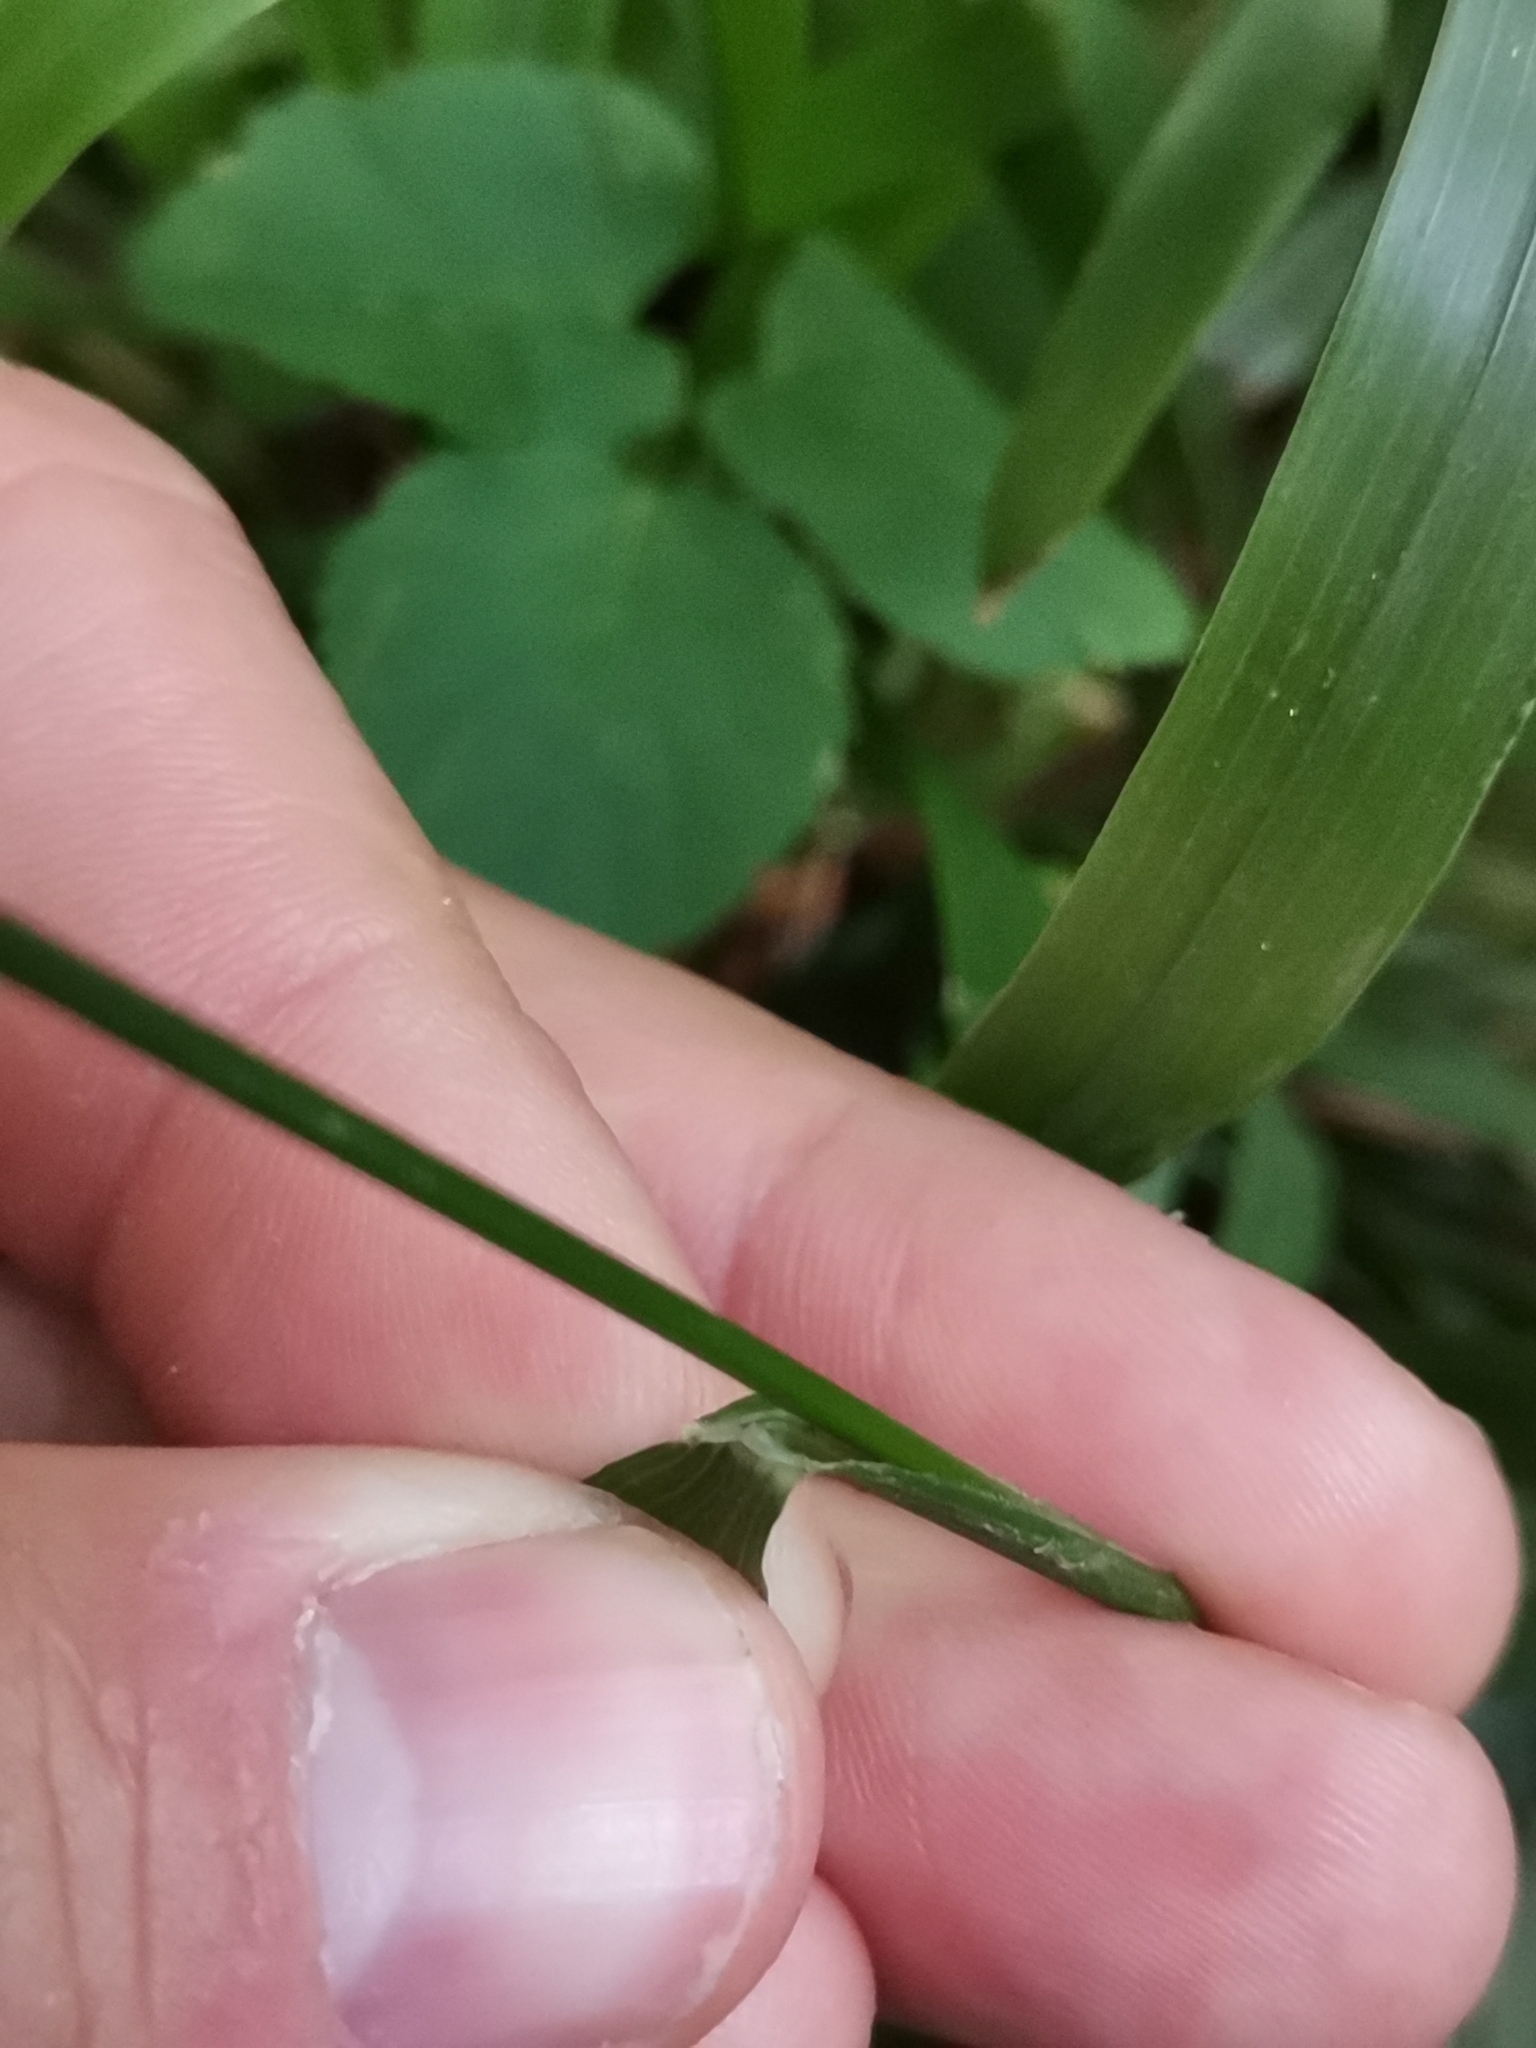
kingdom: Plantae
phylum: Tracheophyta
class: Liliopsida
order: Poales
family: Poaceae
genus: Achnatherum
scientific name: Achnatherum virescens
